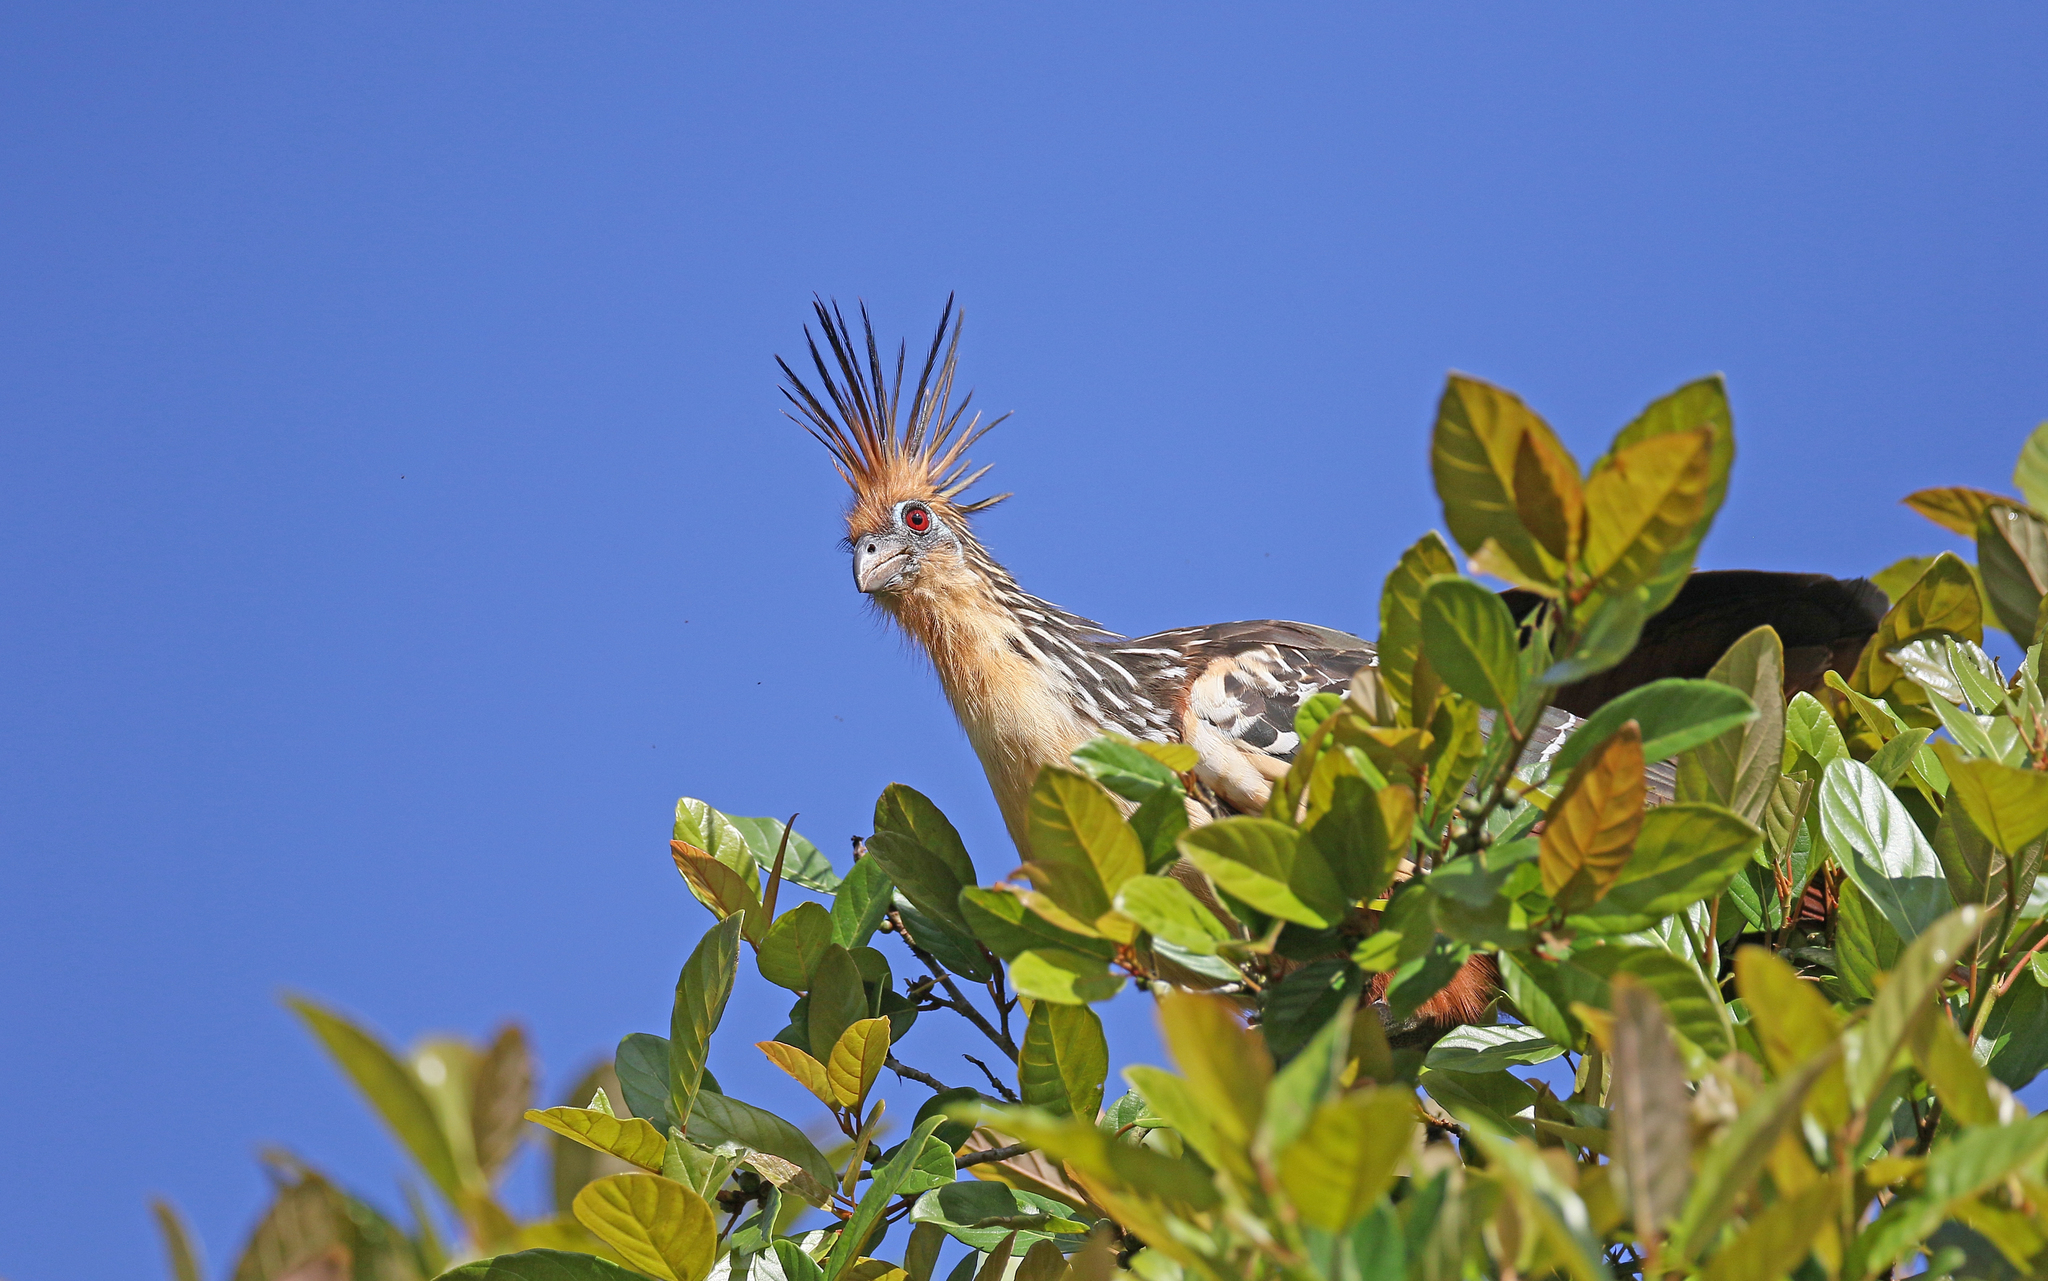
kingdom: Animalia
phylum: Chordata
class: Aves
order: Opisthocomiformes
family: Opisthocomidae
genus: Opisthocomus
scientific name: Opisthocomus hoazin
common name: Hoatzin
